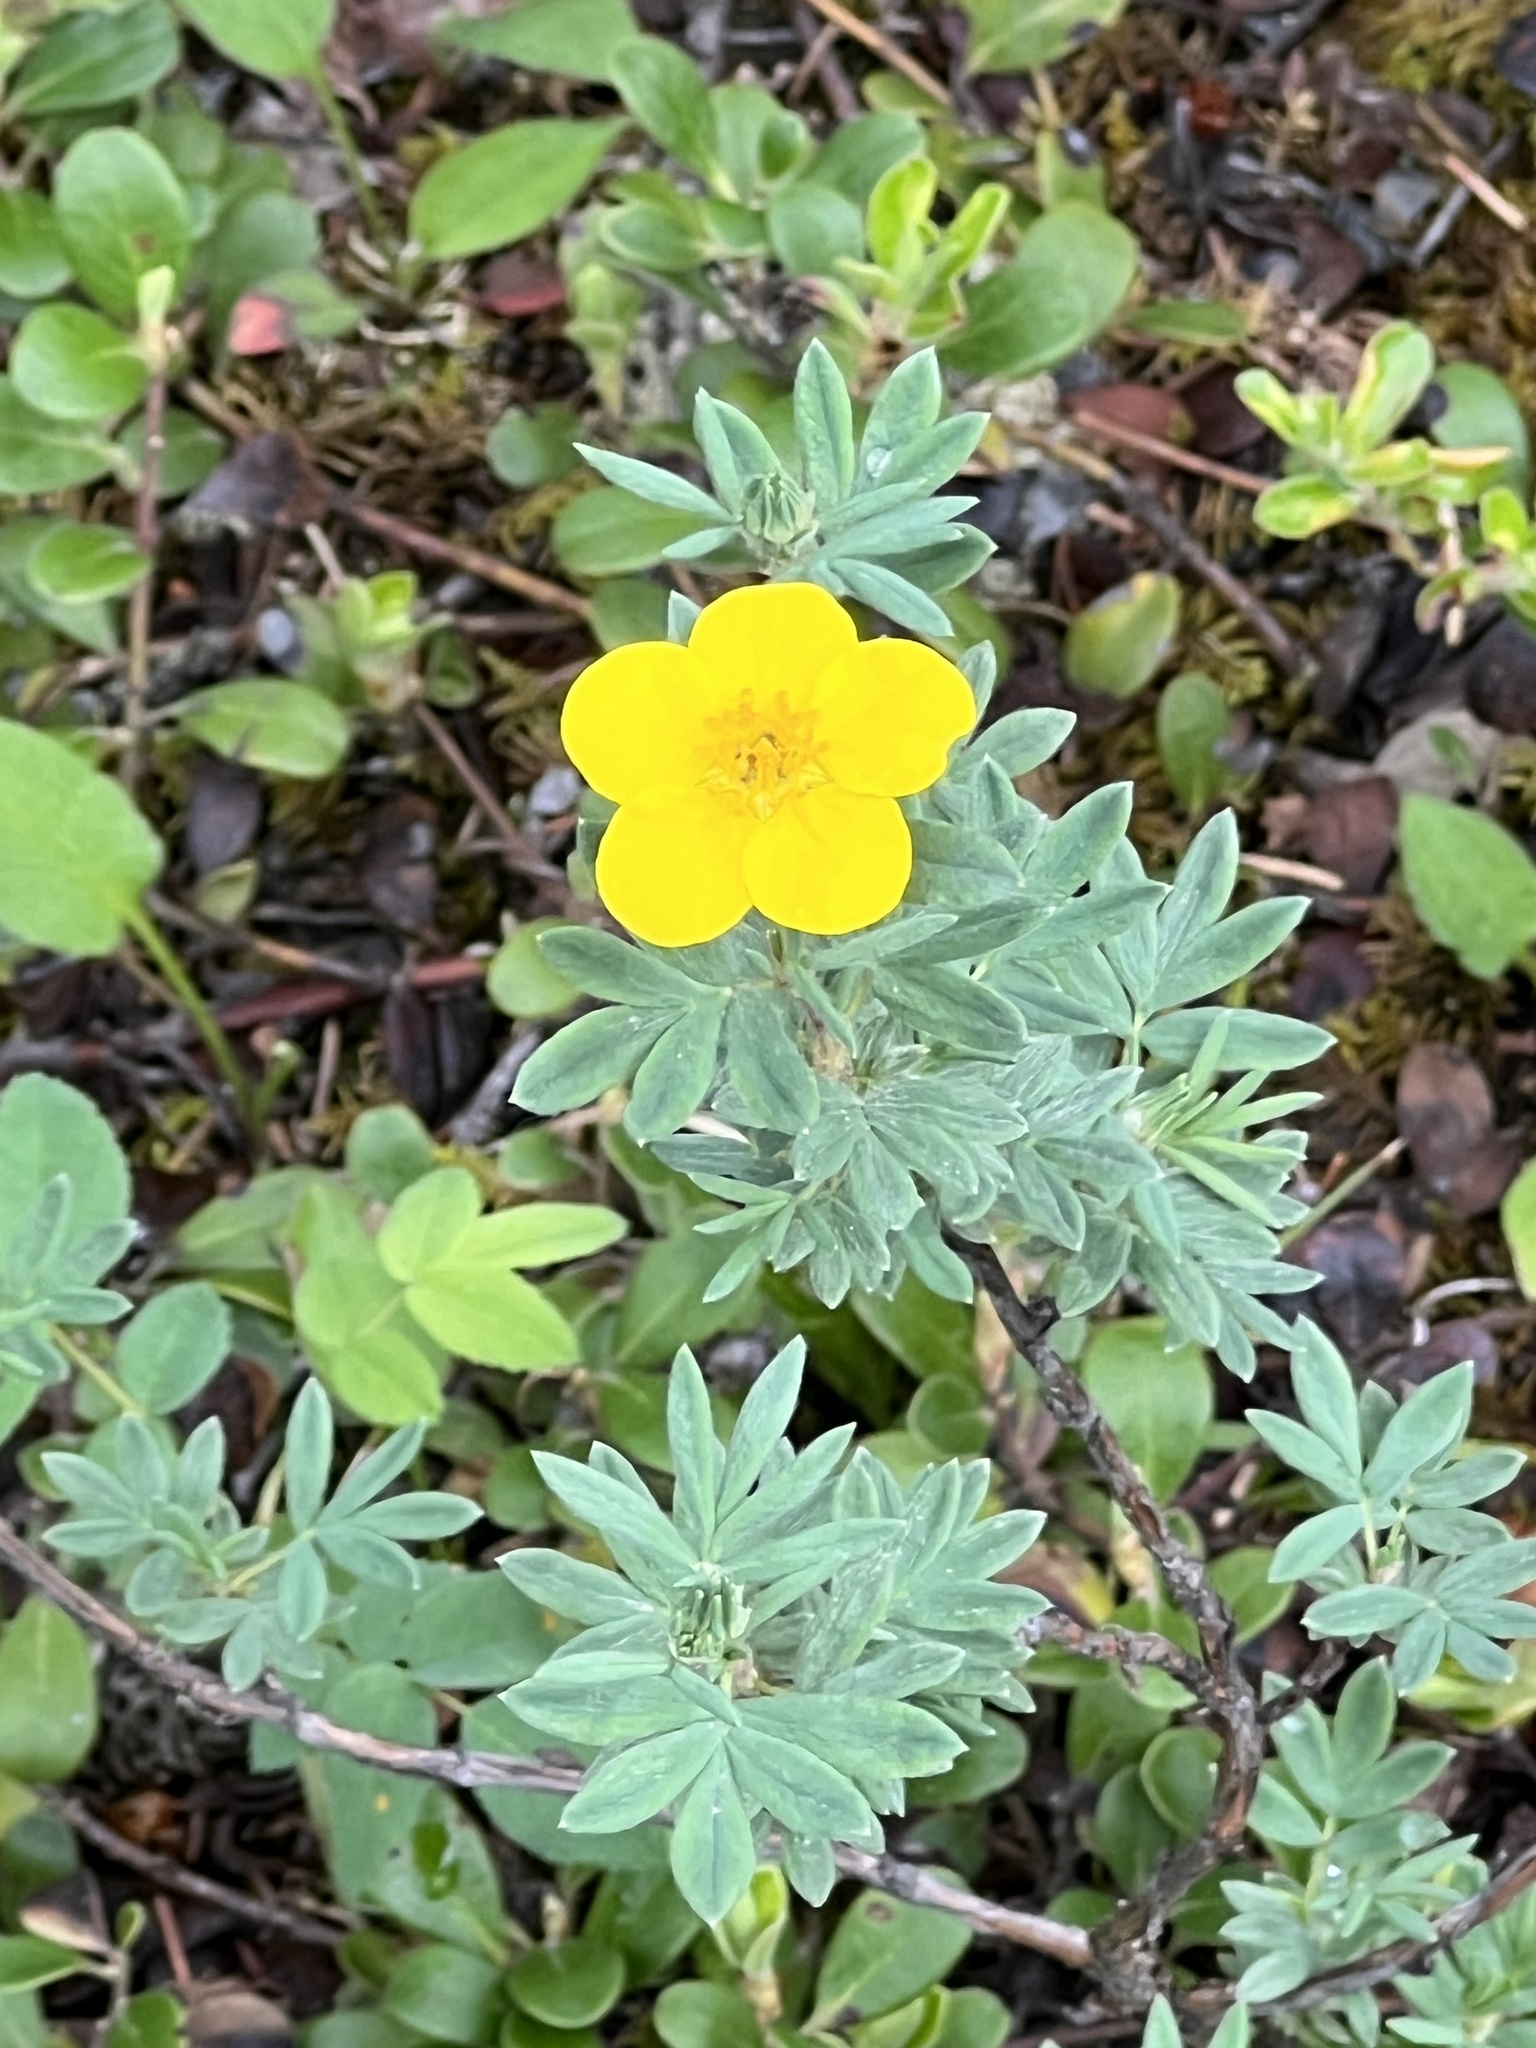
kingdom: Plantae
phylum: Tracheophyta
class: Magnoliopsida
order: Rosales
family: Rosaceae
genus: Dasiphora
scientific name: Dasiphora fruticosa
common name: Shrubby cinquefoil
